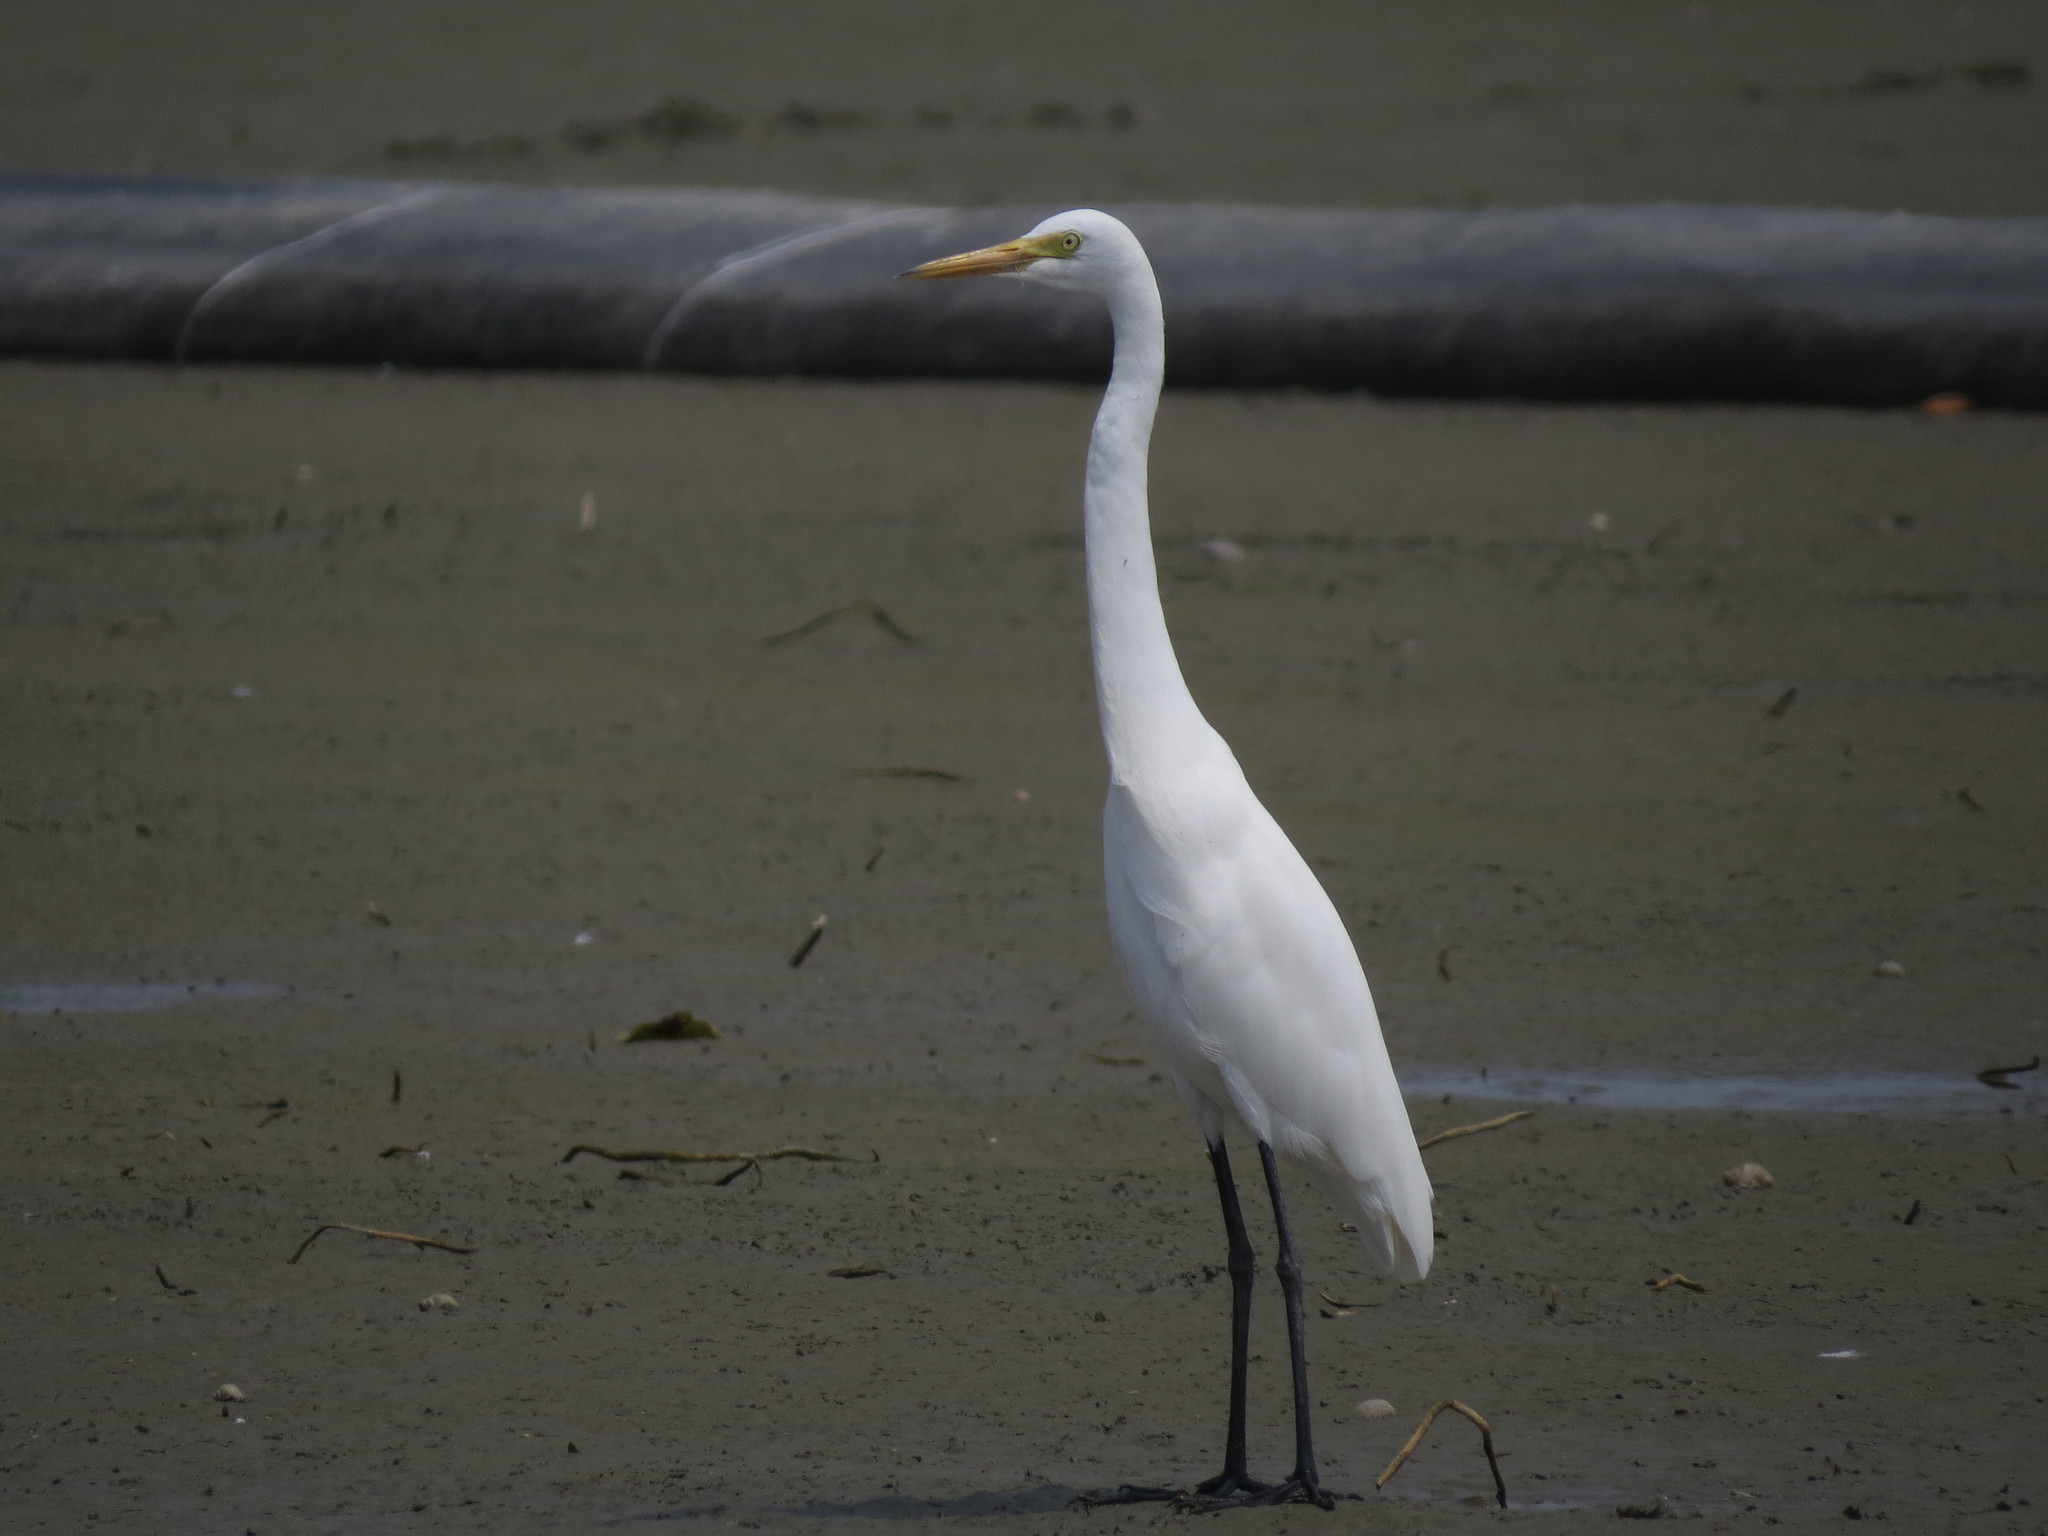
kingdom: Animalia
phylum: Chordata
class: Aves
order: Pelecaniformes
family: Ardeidae
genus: Egretta
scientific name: Egretta intermedia
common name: Intermediate egret
